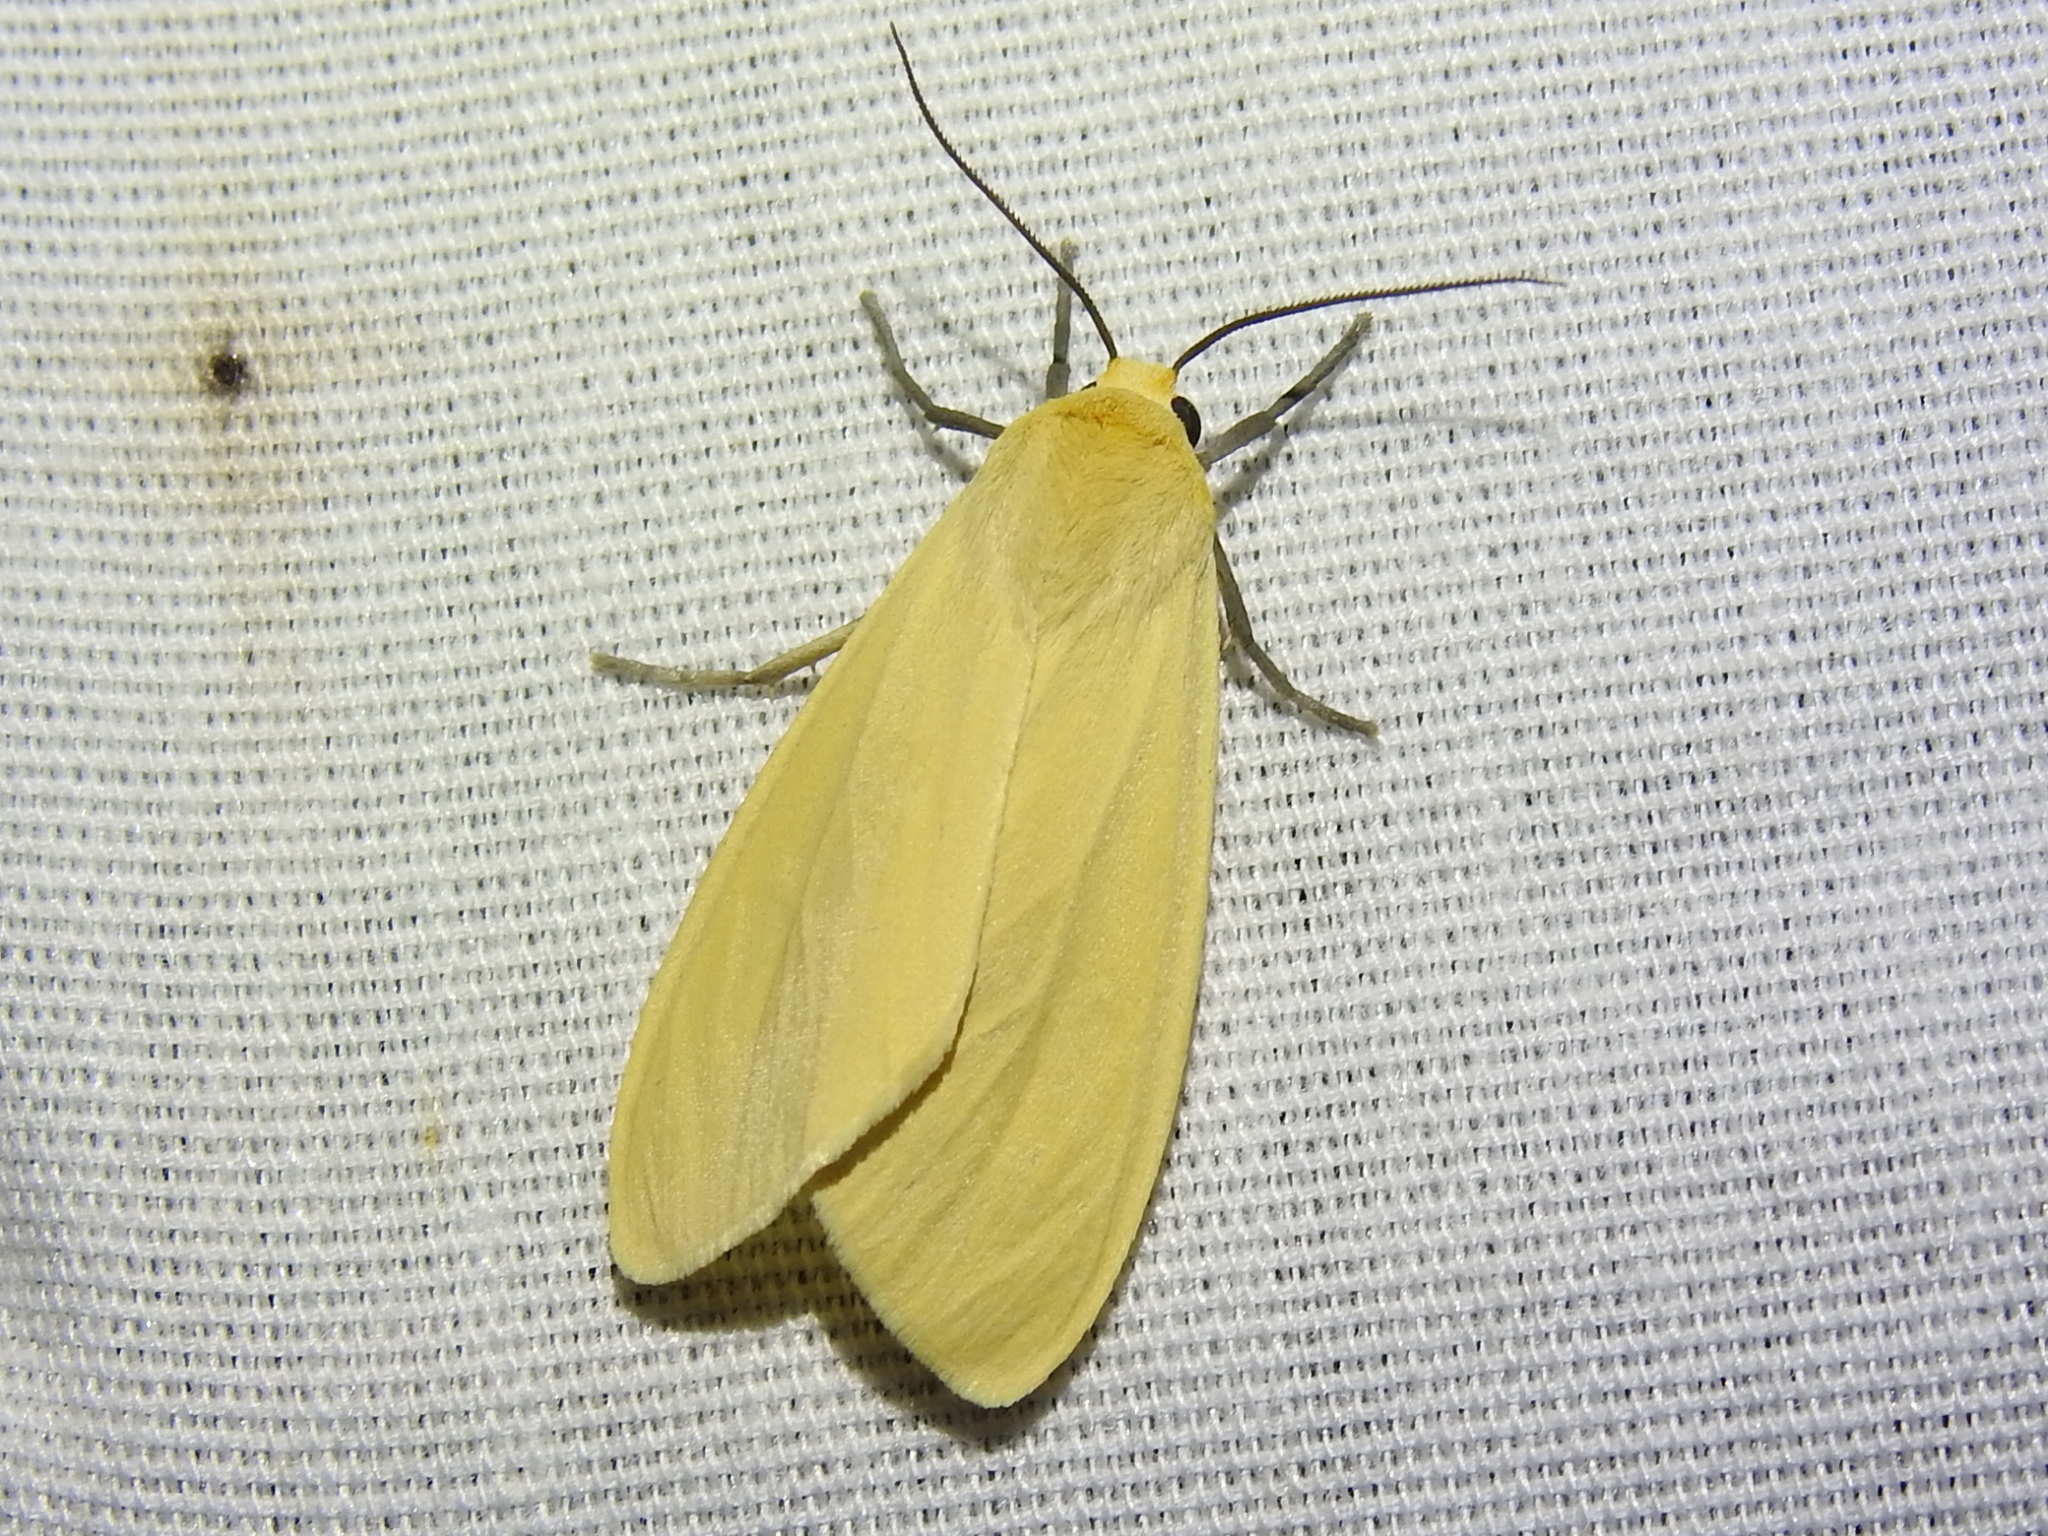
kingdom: Animalia
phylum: Arthropoda
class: Insecta
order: Lepidoptera
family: Erebidae
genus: Pareuchaetes
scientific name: Pareuchaetes insulata
